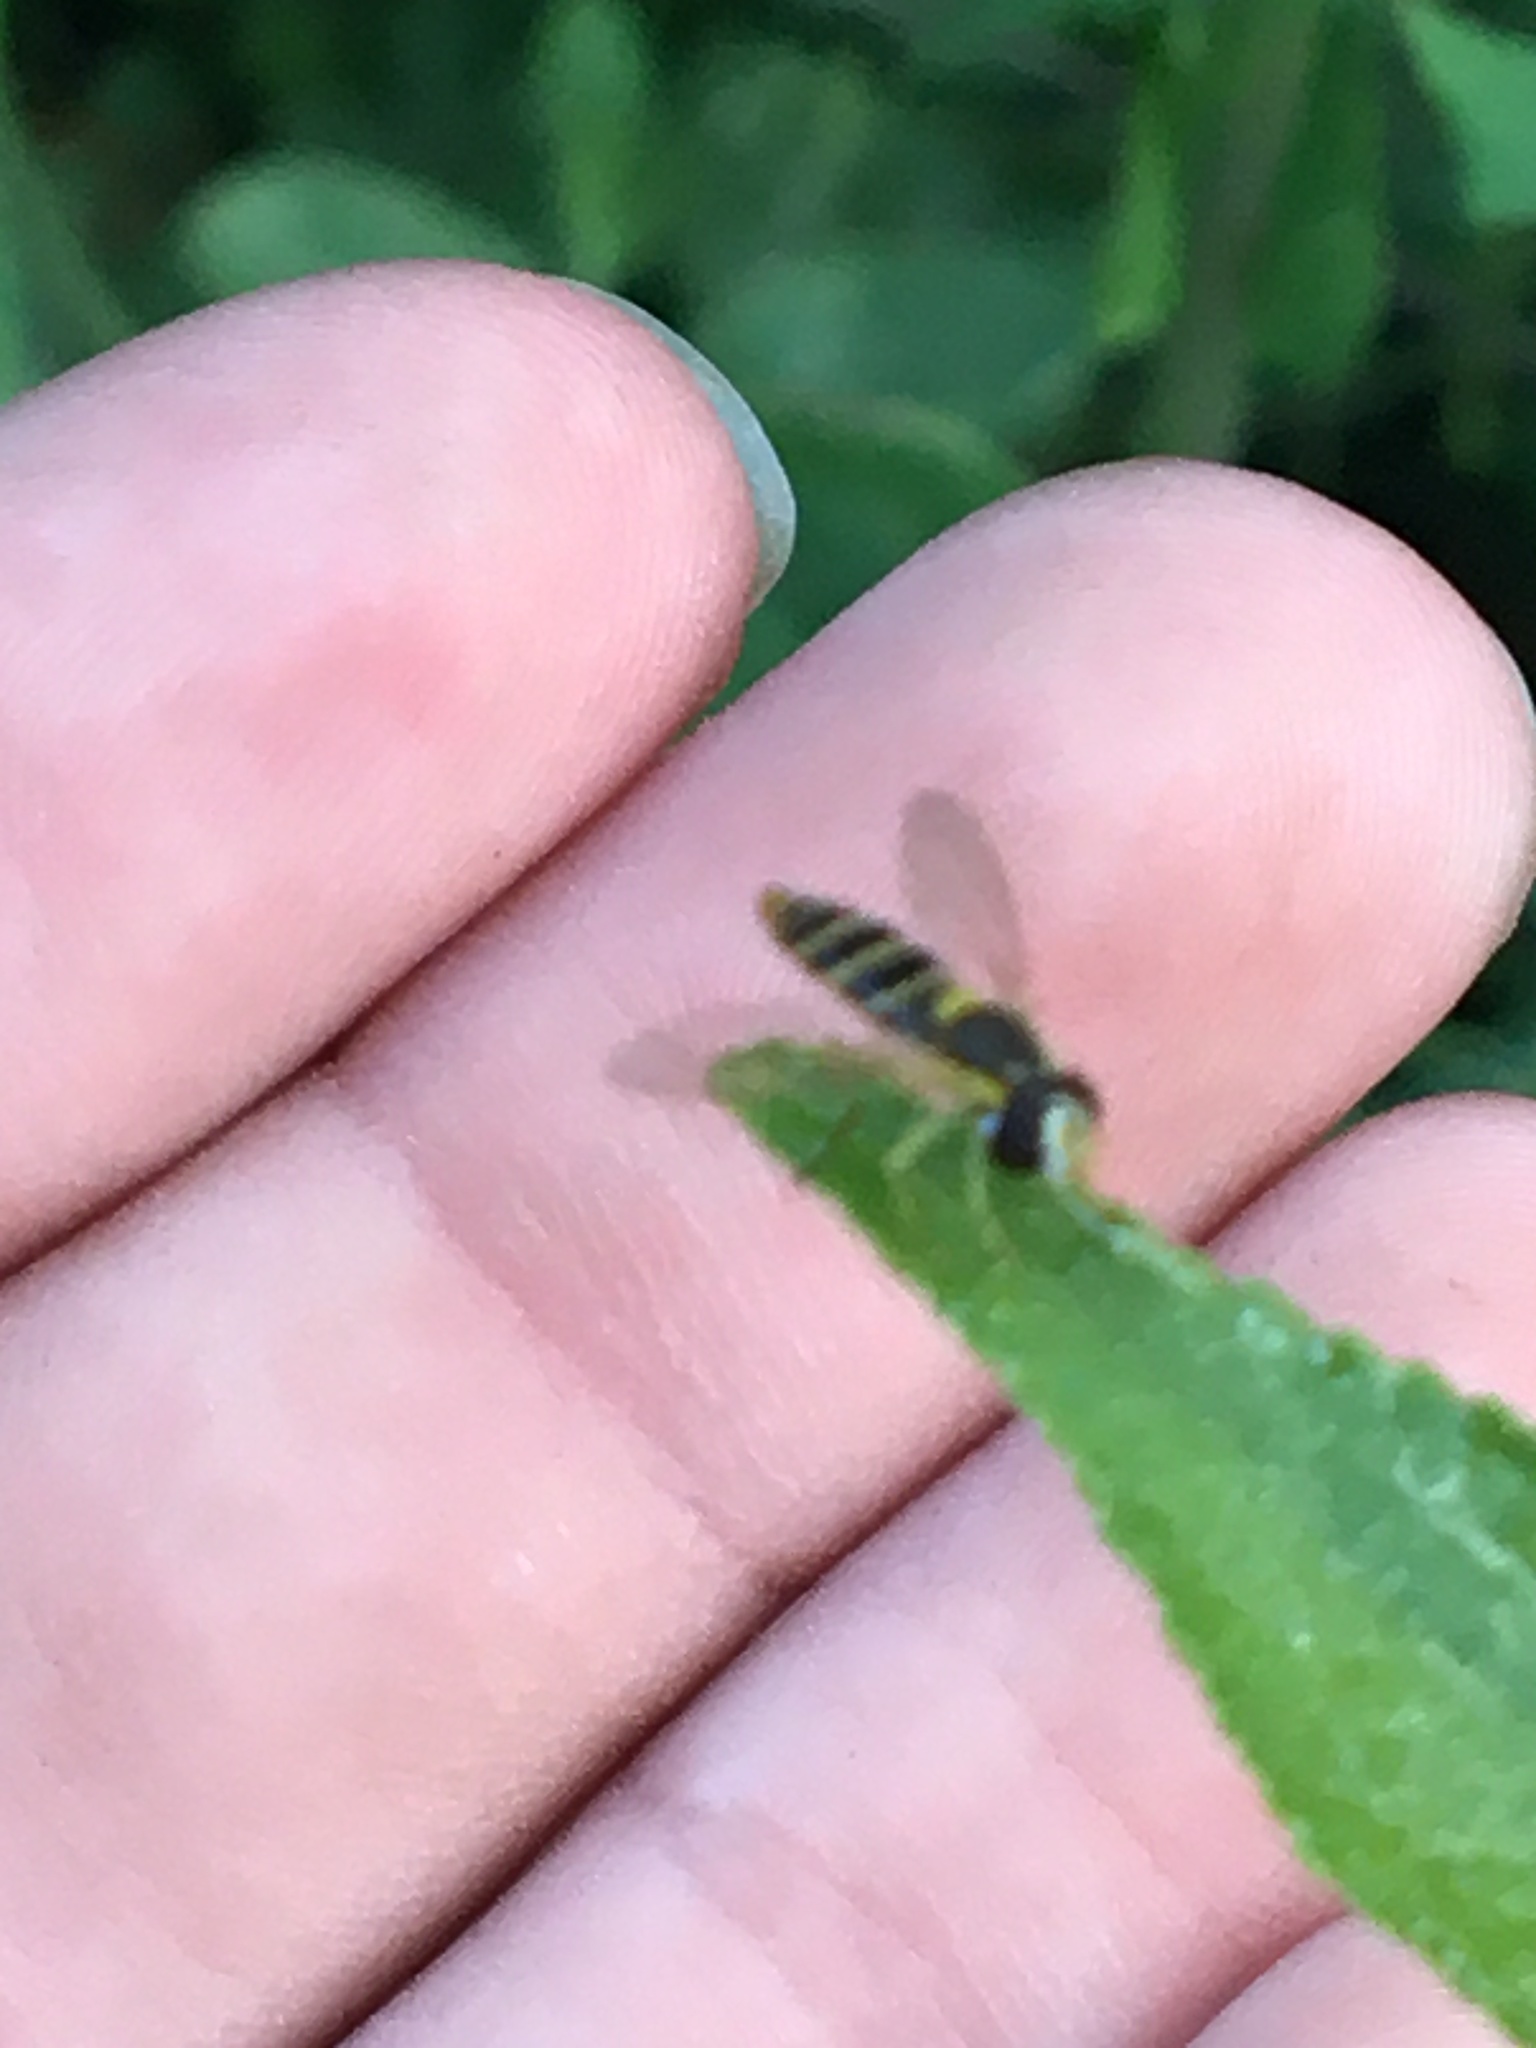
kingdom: Animalia
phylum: Arthropoda
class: Insecta
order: Diptera
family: Syrphidae
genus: Sphaerophoria
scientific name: Sphaerophoria
